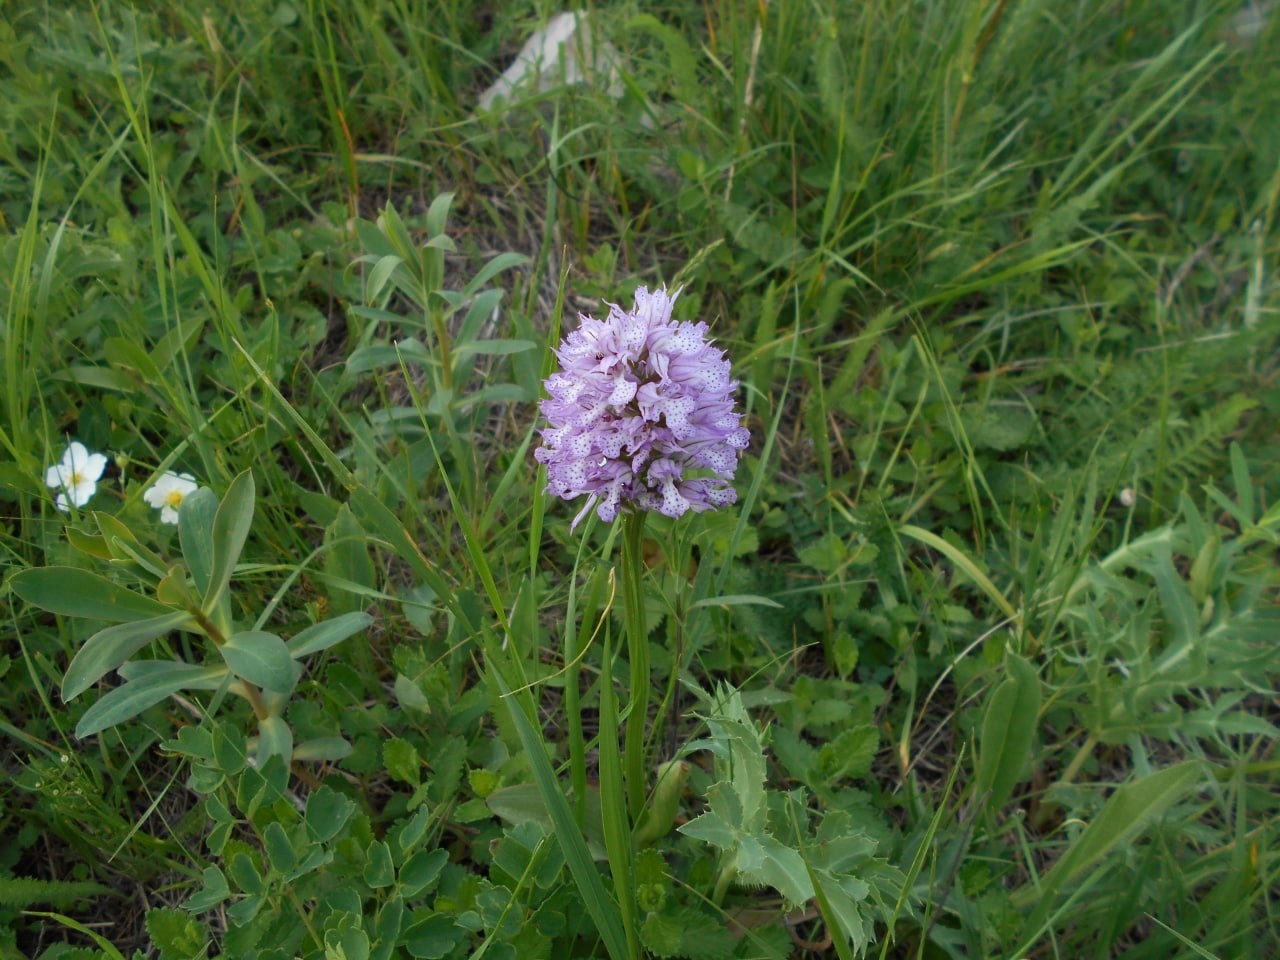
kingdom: Plantae
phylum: Tracheophyta
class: Liliopsida
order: Asparagales
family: Orchidaceae
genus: Neotinea
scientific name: Neotinea tridentata
